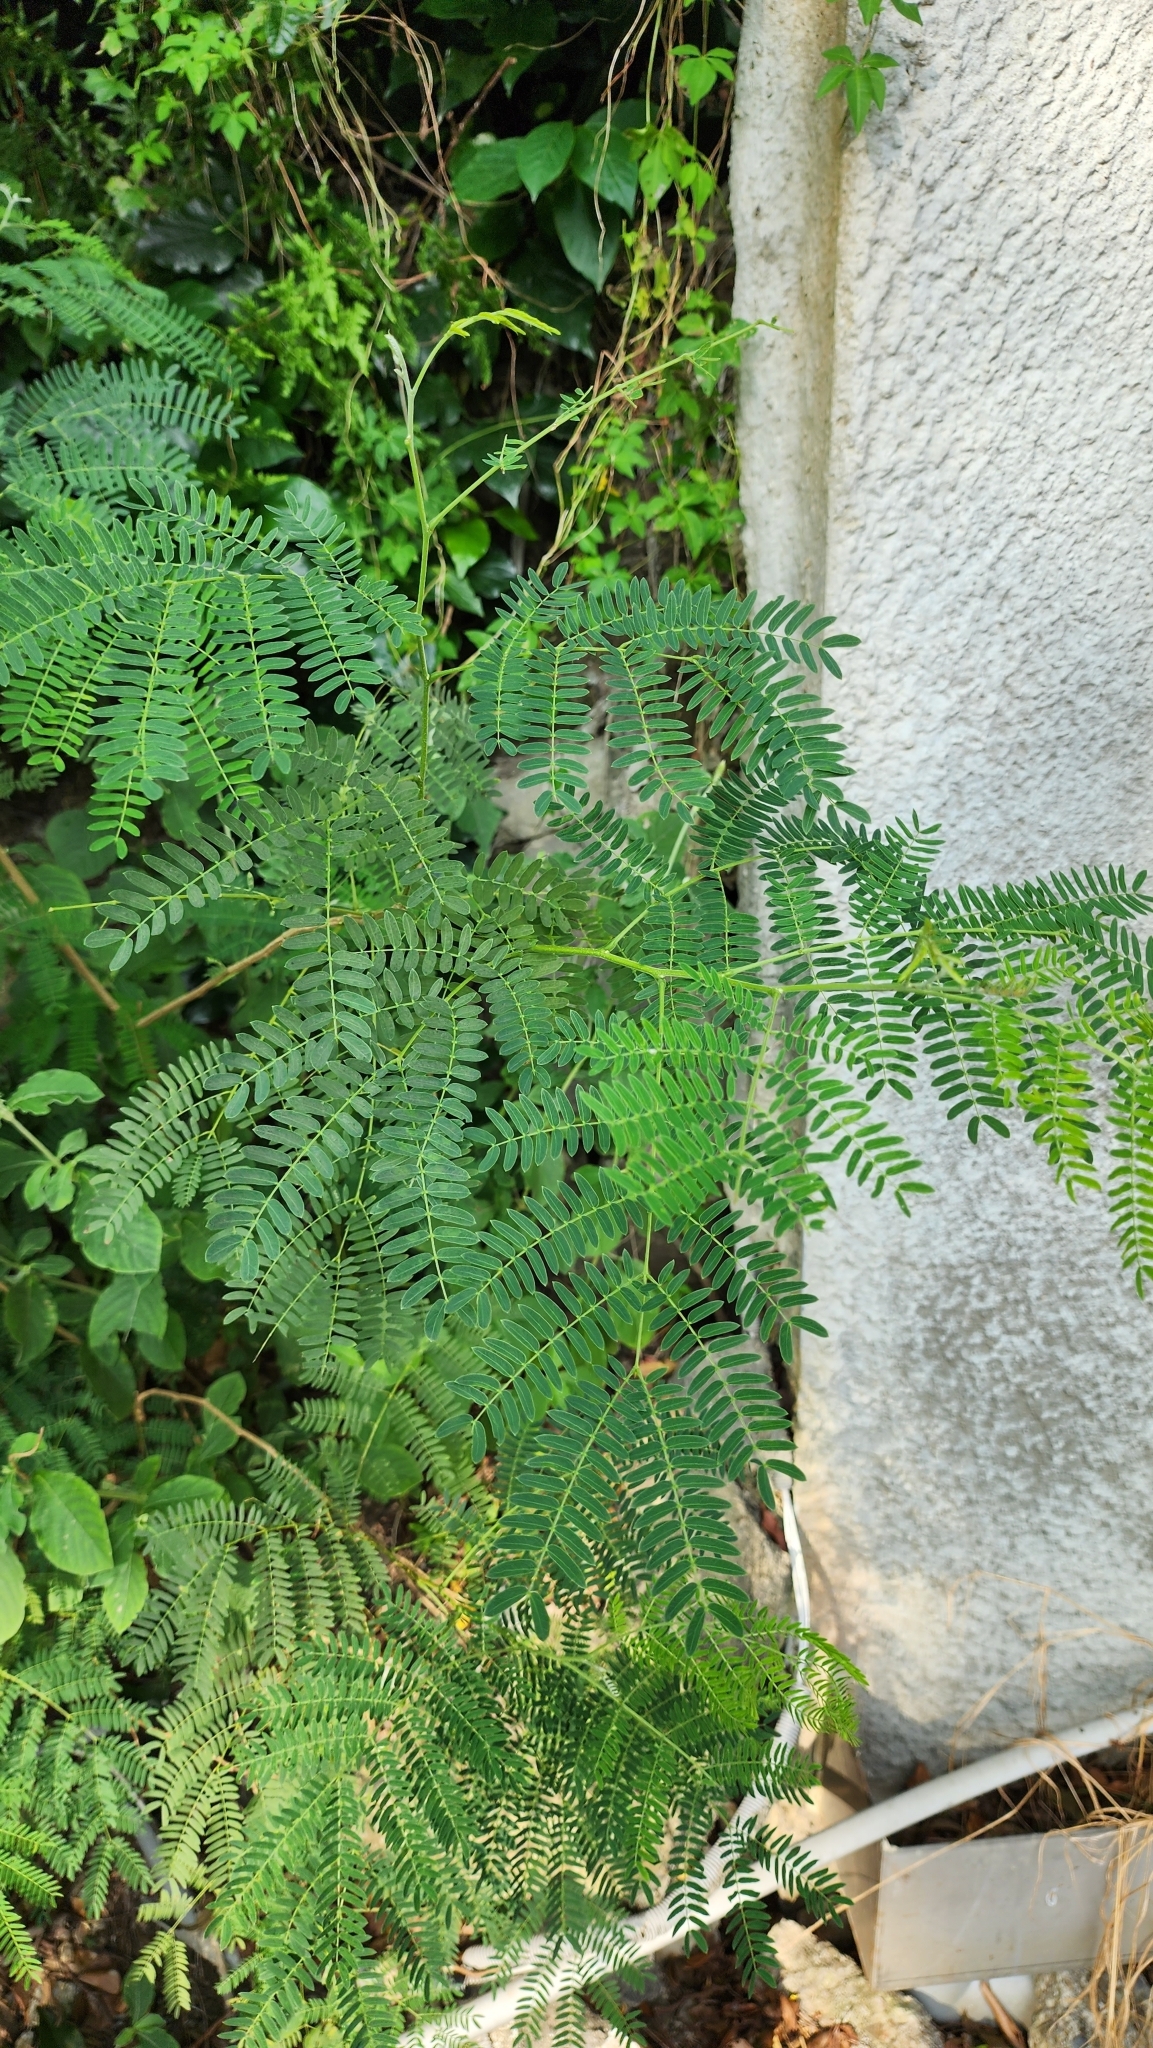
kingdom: Plantae
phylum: Tracheophyta
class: Magnoliopsida
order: Fabales
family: Fabaceae
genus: Leucaena
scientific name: Leucaena leucocephala
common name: White leadtree
